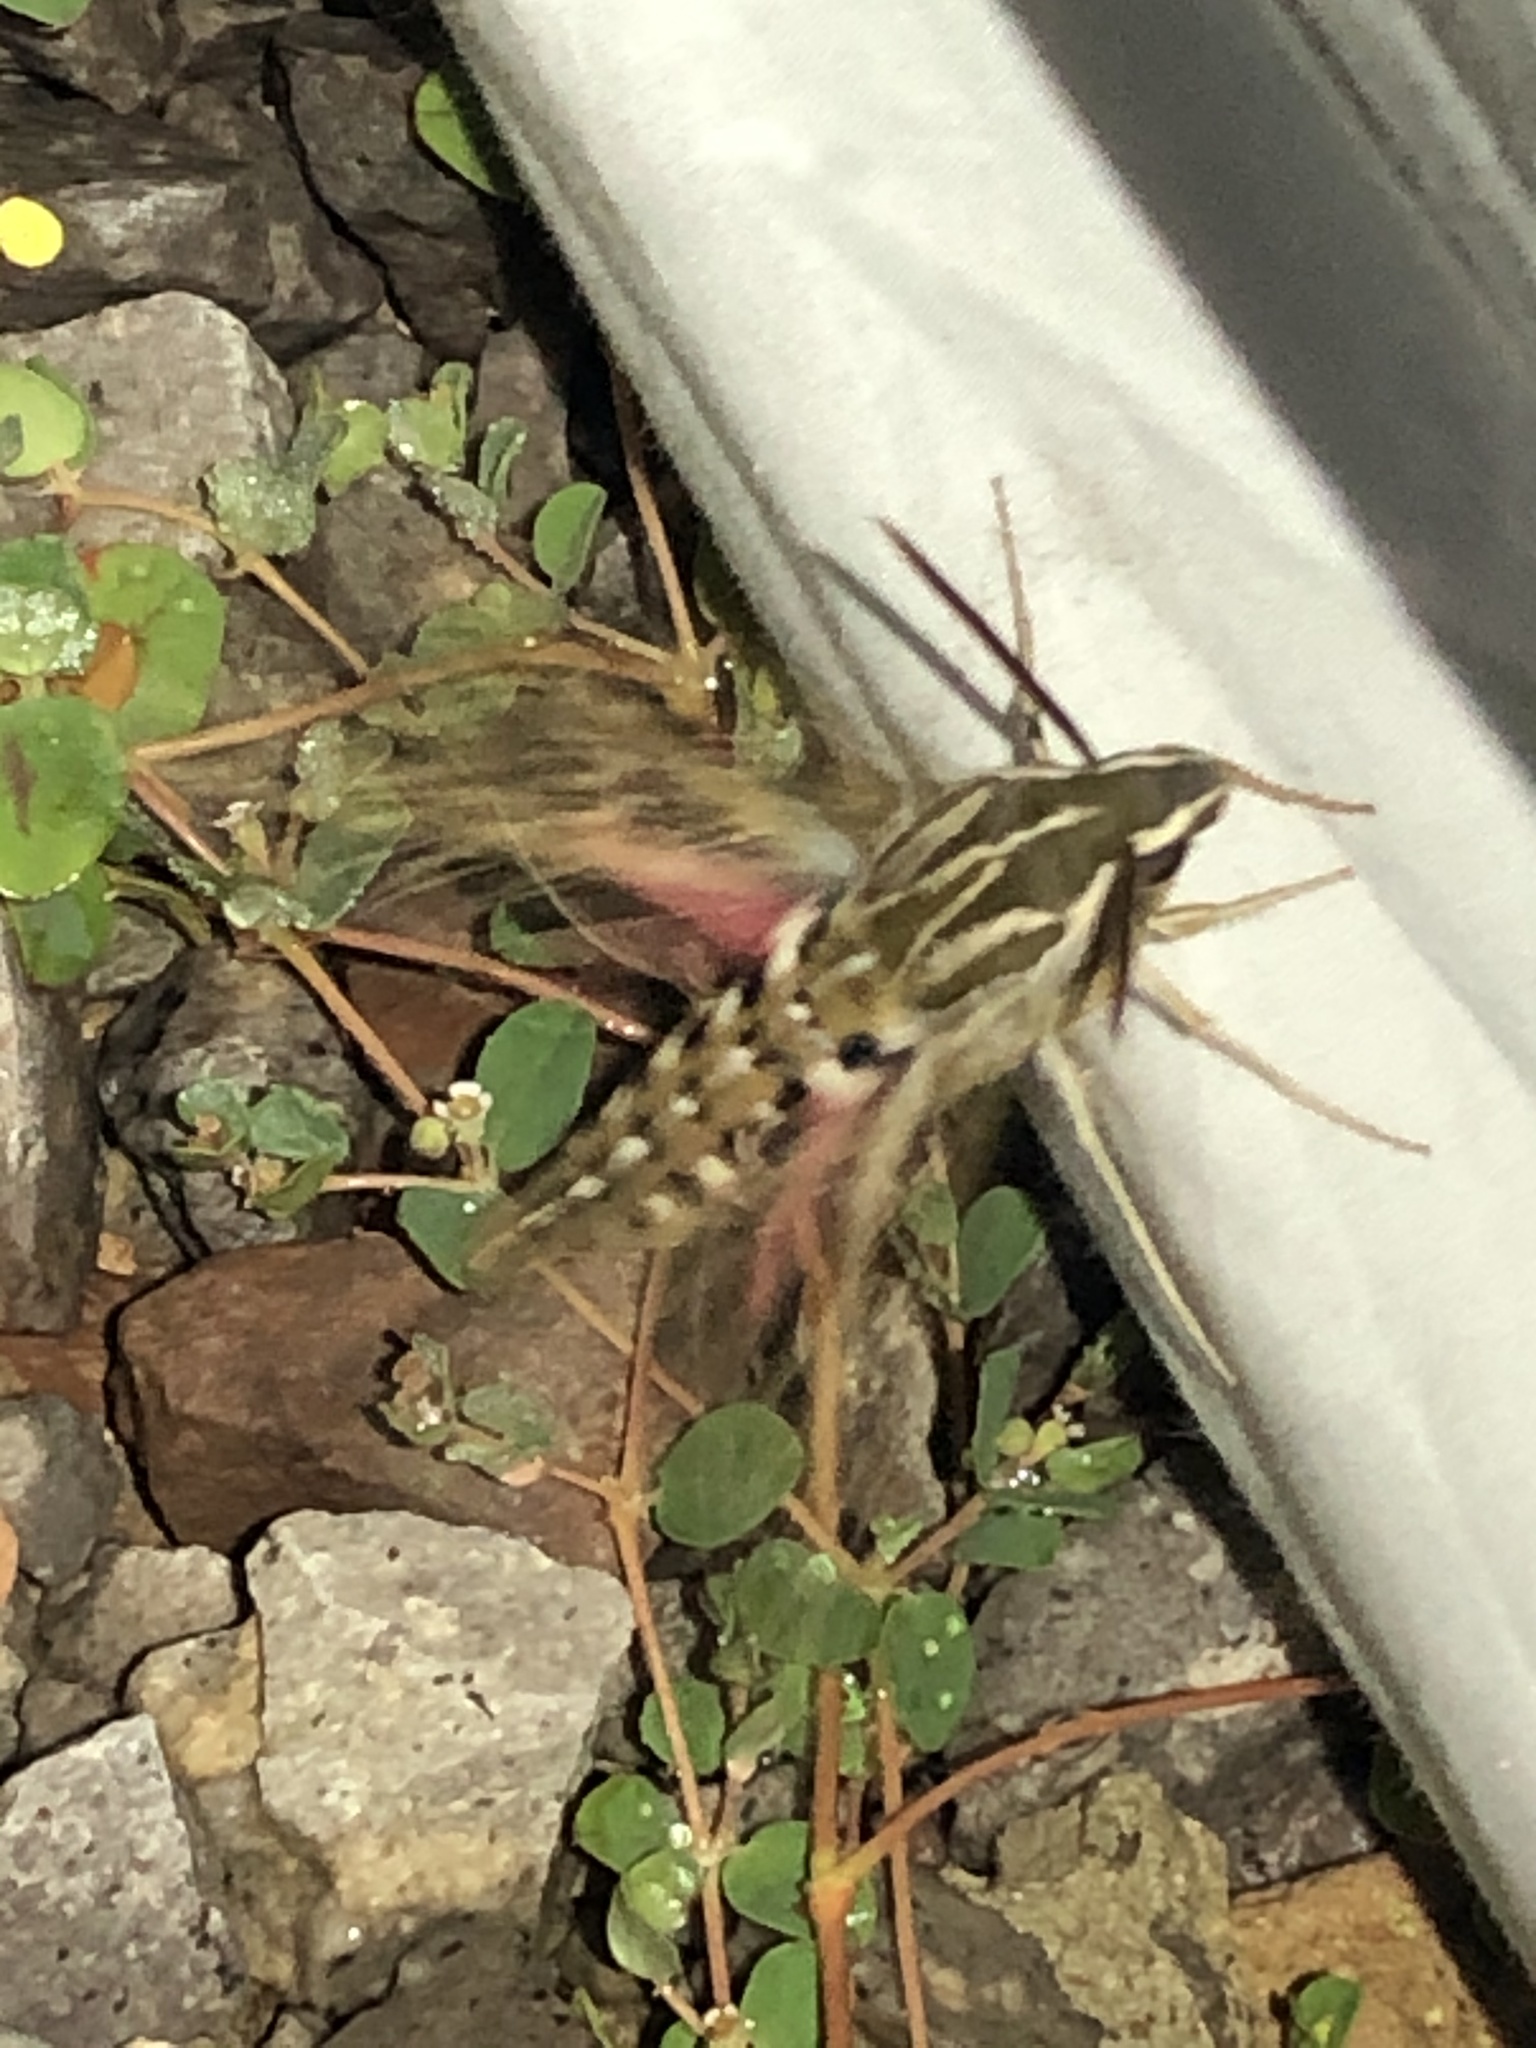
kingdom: Animalia
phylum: Arthropoda
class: Insecta
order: Lepidoptera
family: Sphingidae
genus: Hyles
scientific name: Hyles lineata
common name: White-lined sphinx
